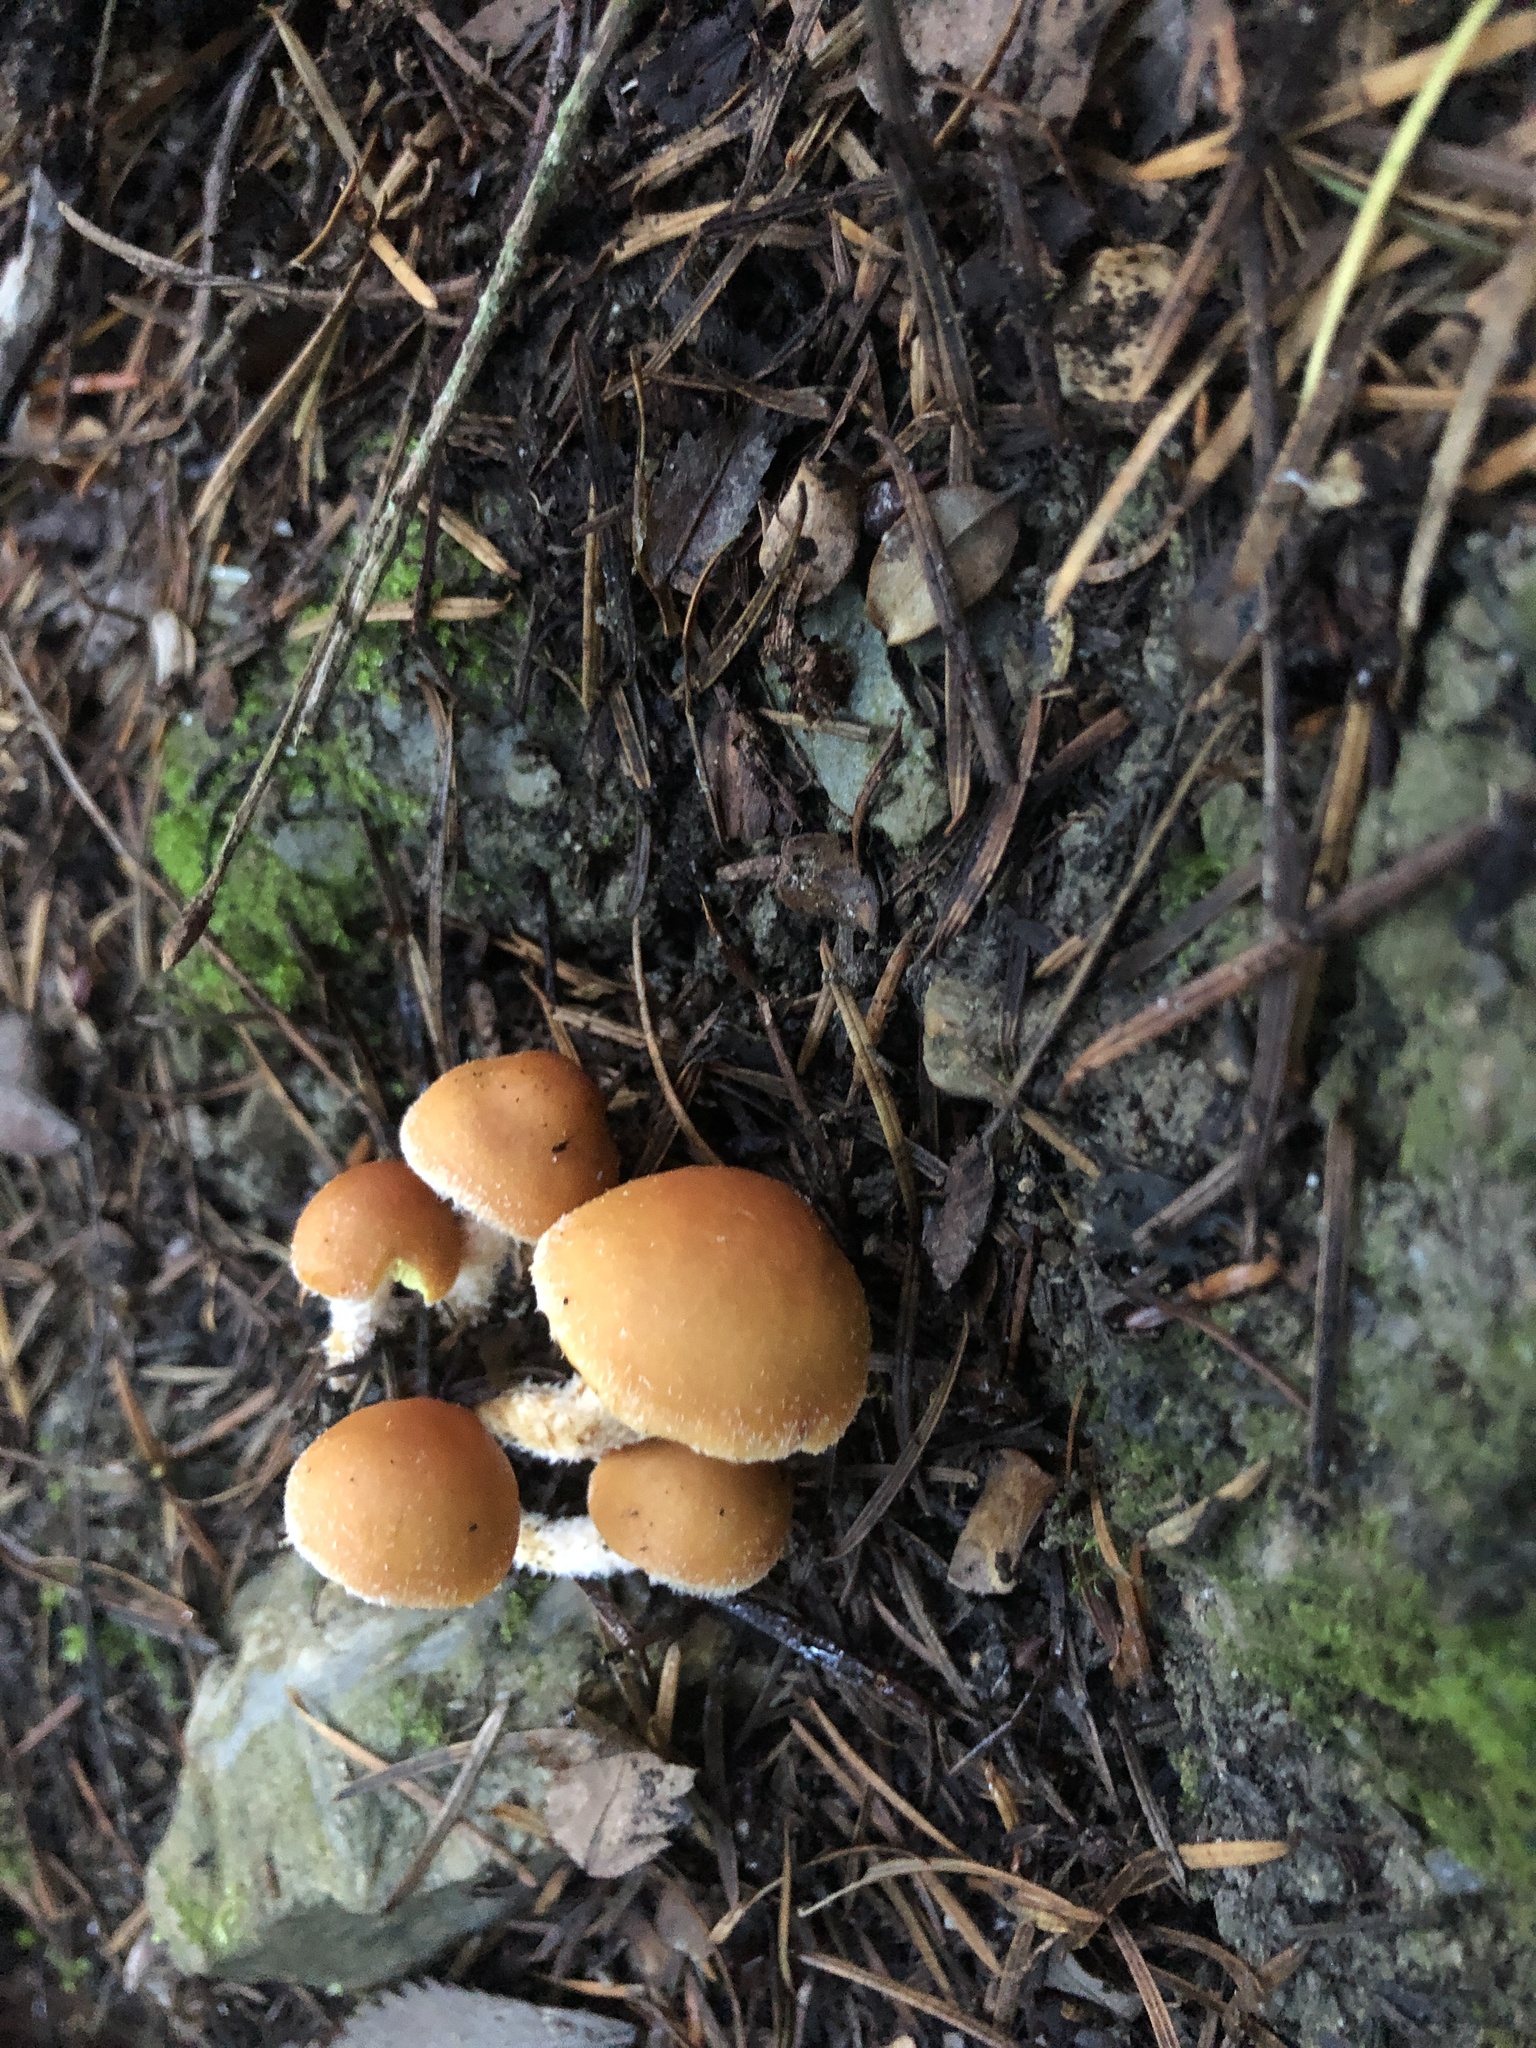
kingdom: Fungi
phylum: Basidiomycota
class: Agaricomycetes
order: Agaricales
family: Strophariaceae
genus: Hypholoma
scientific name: Hypholoma australianum
